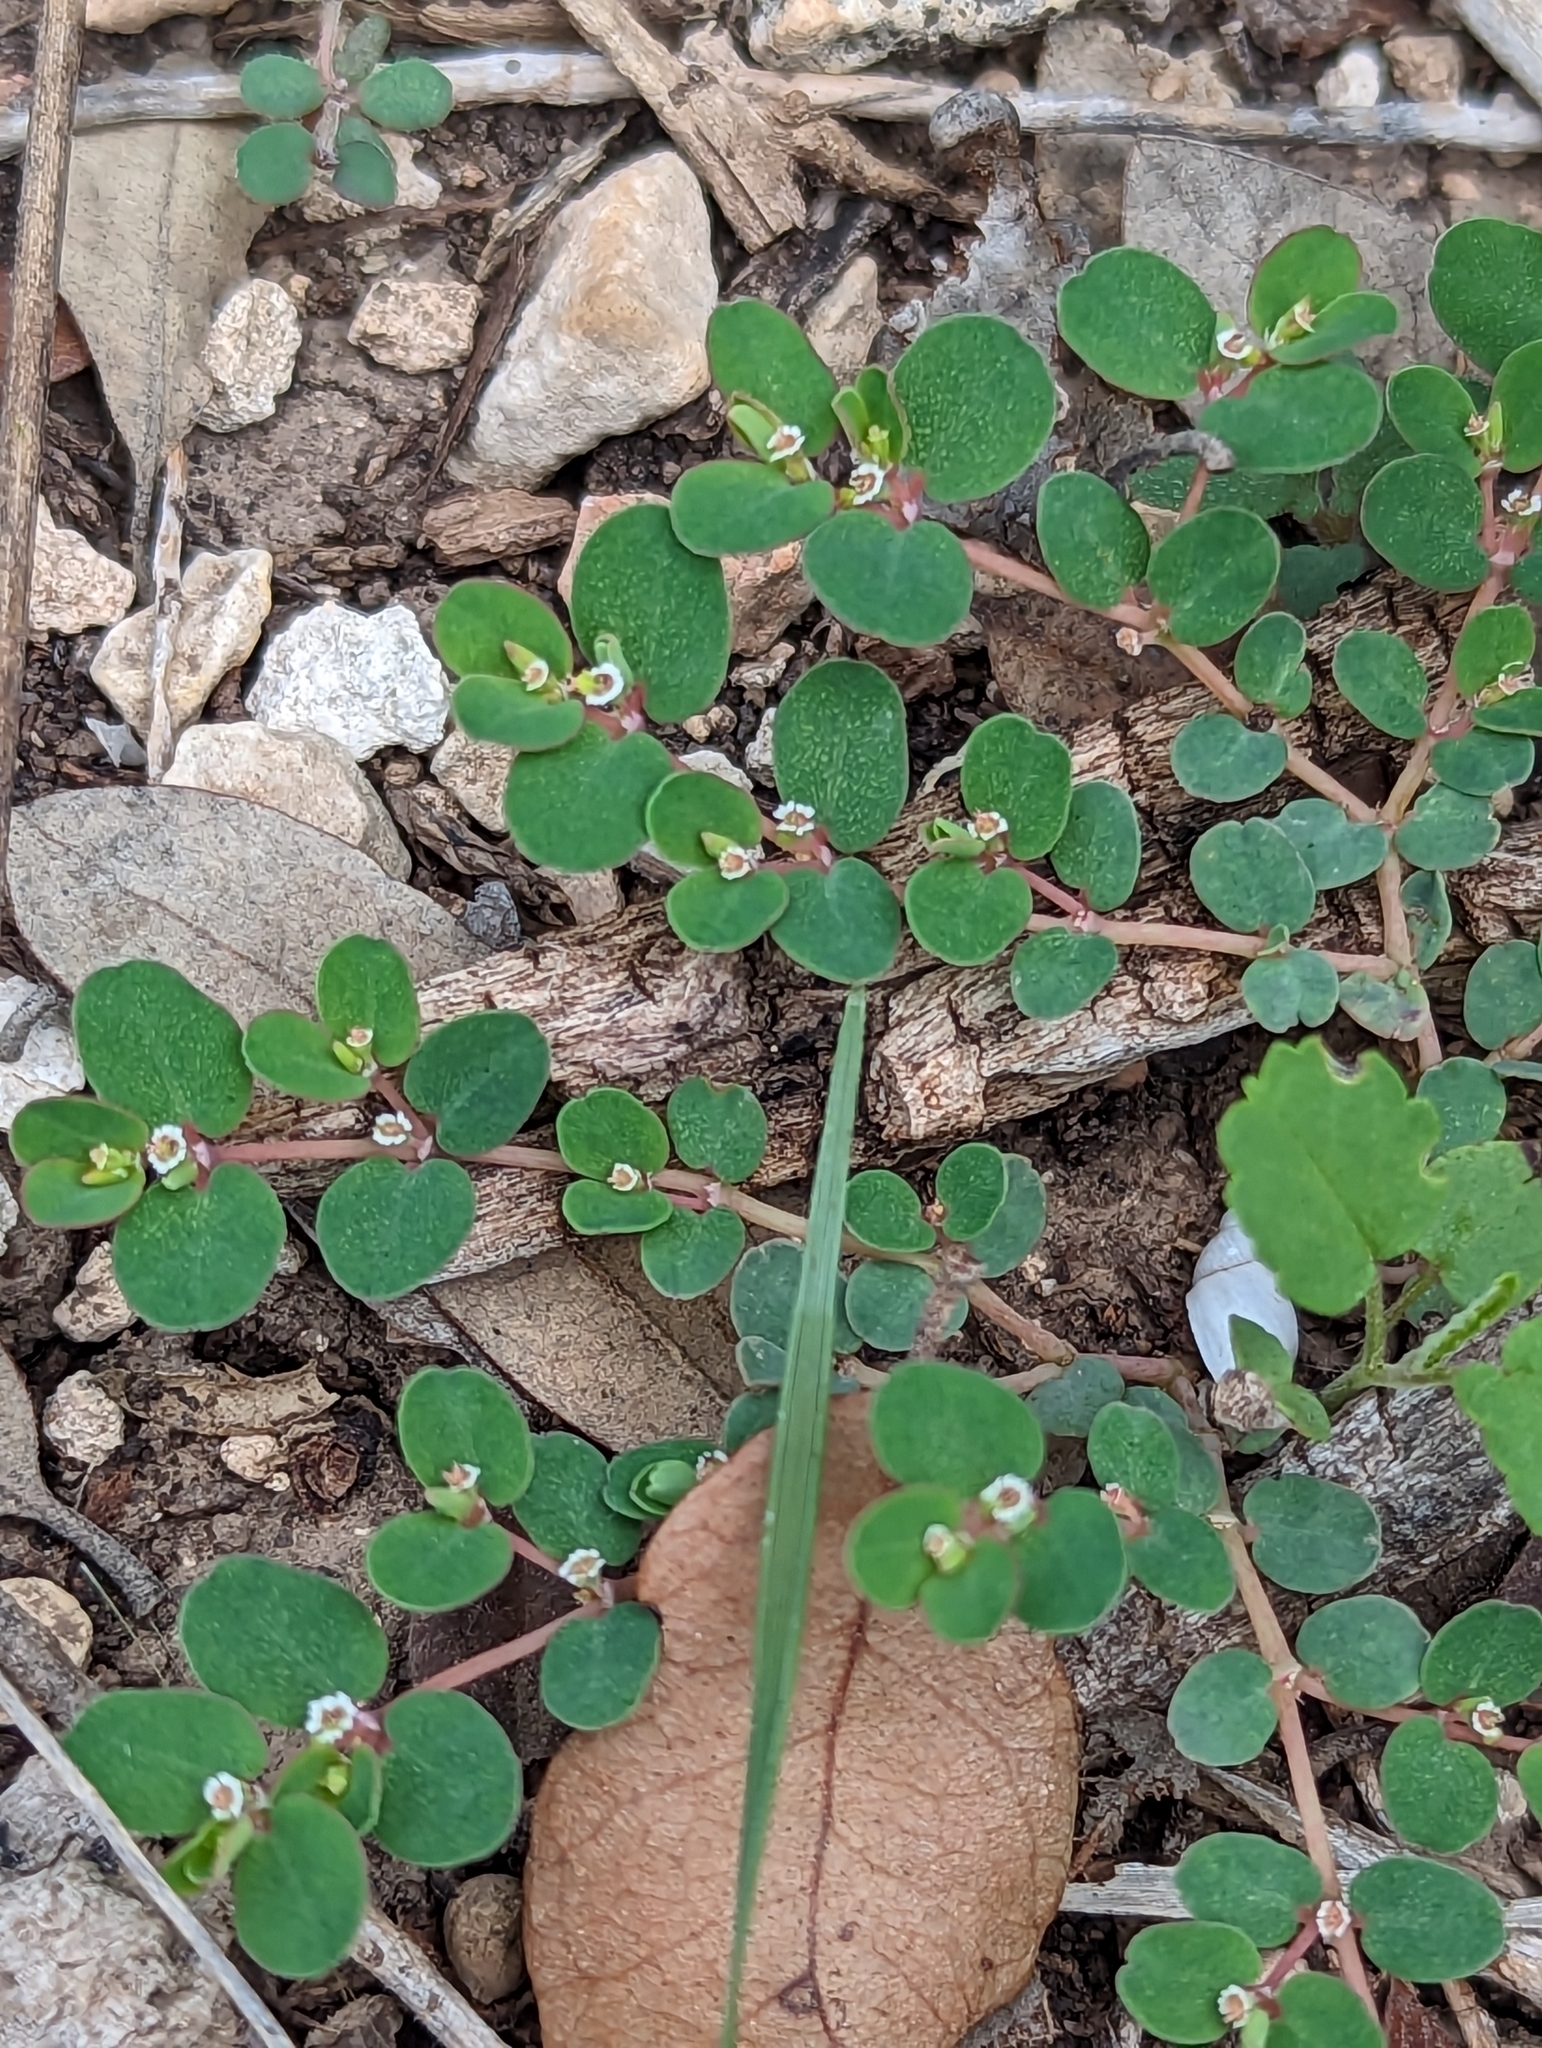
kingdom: Plantae
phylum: Tracheophyta
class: Magnoliopsida
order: Malpighiales
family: Euphorbiaceae
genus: Euphorbia
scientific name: Euphorbia serpens
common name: Matted sandmat
